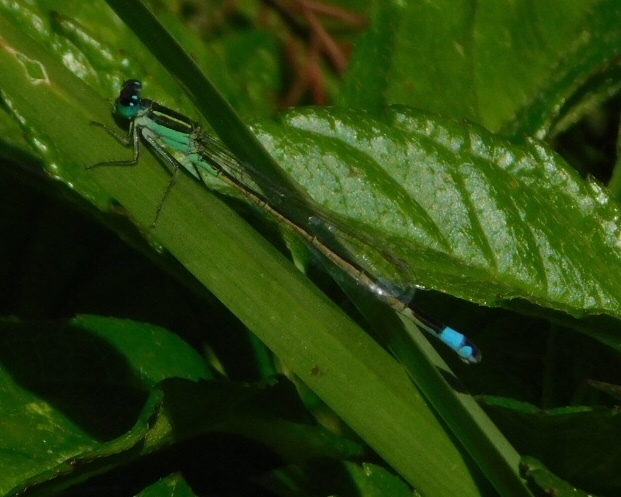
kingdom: Animalia
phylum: Arthropoda
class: Insecta
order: Odonata
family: Coenagrionidae
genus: Ischnura
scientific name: Ischnura ramburii
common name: Rambur's forktail
